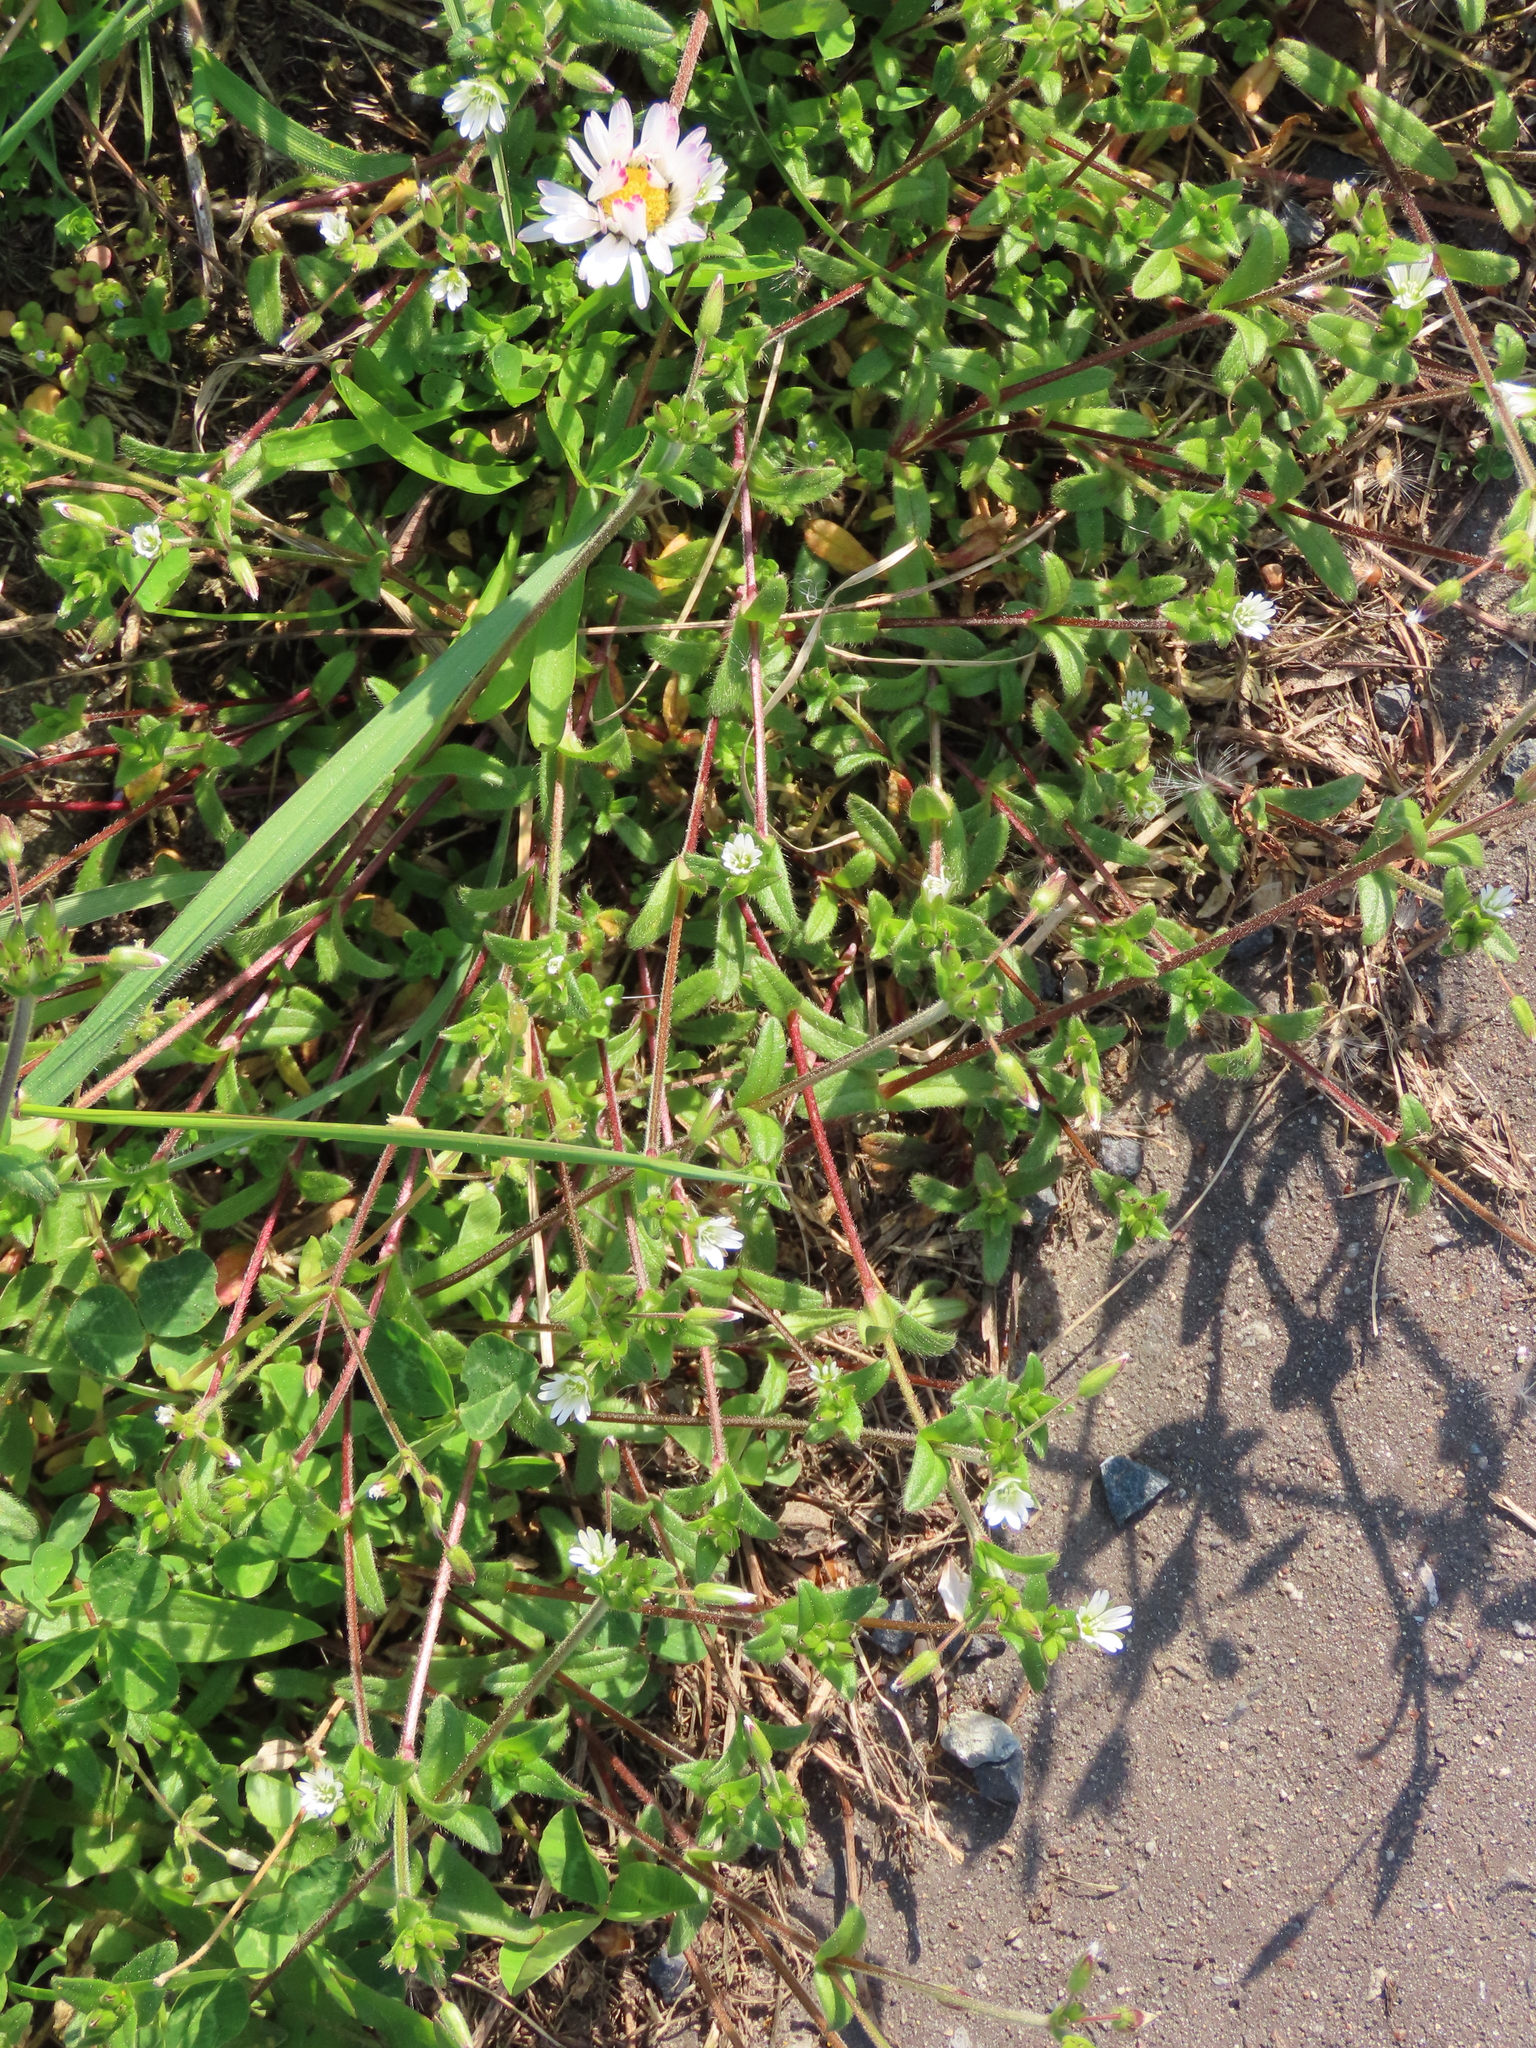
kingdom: Plantae
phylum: Tracheophyta
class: Magnoliopsida
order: Caryophyllales
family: Caryophyllaceae
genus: Cerastium
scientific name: Cerastium holosteoides
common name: Big chickweed
